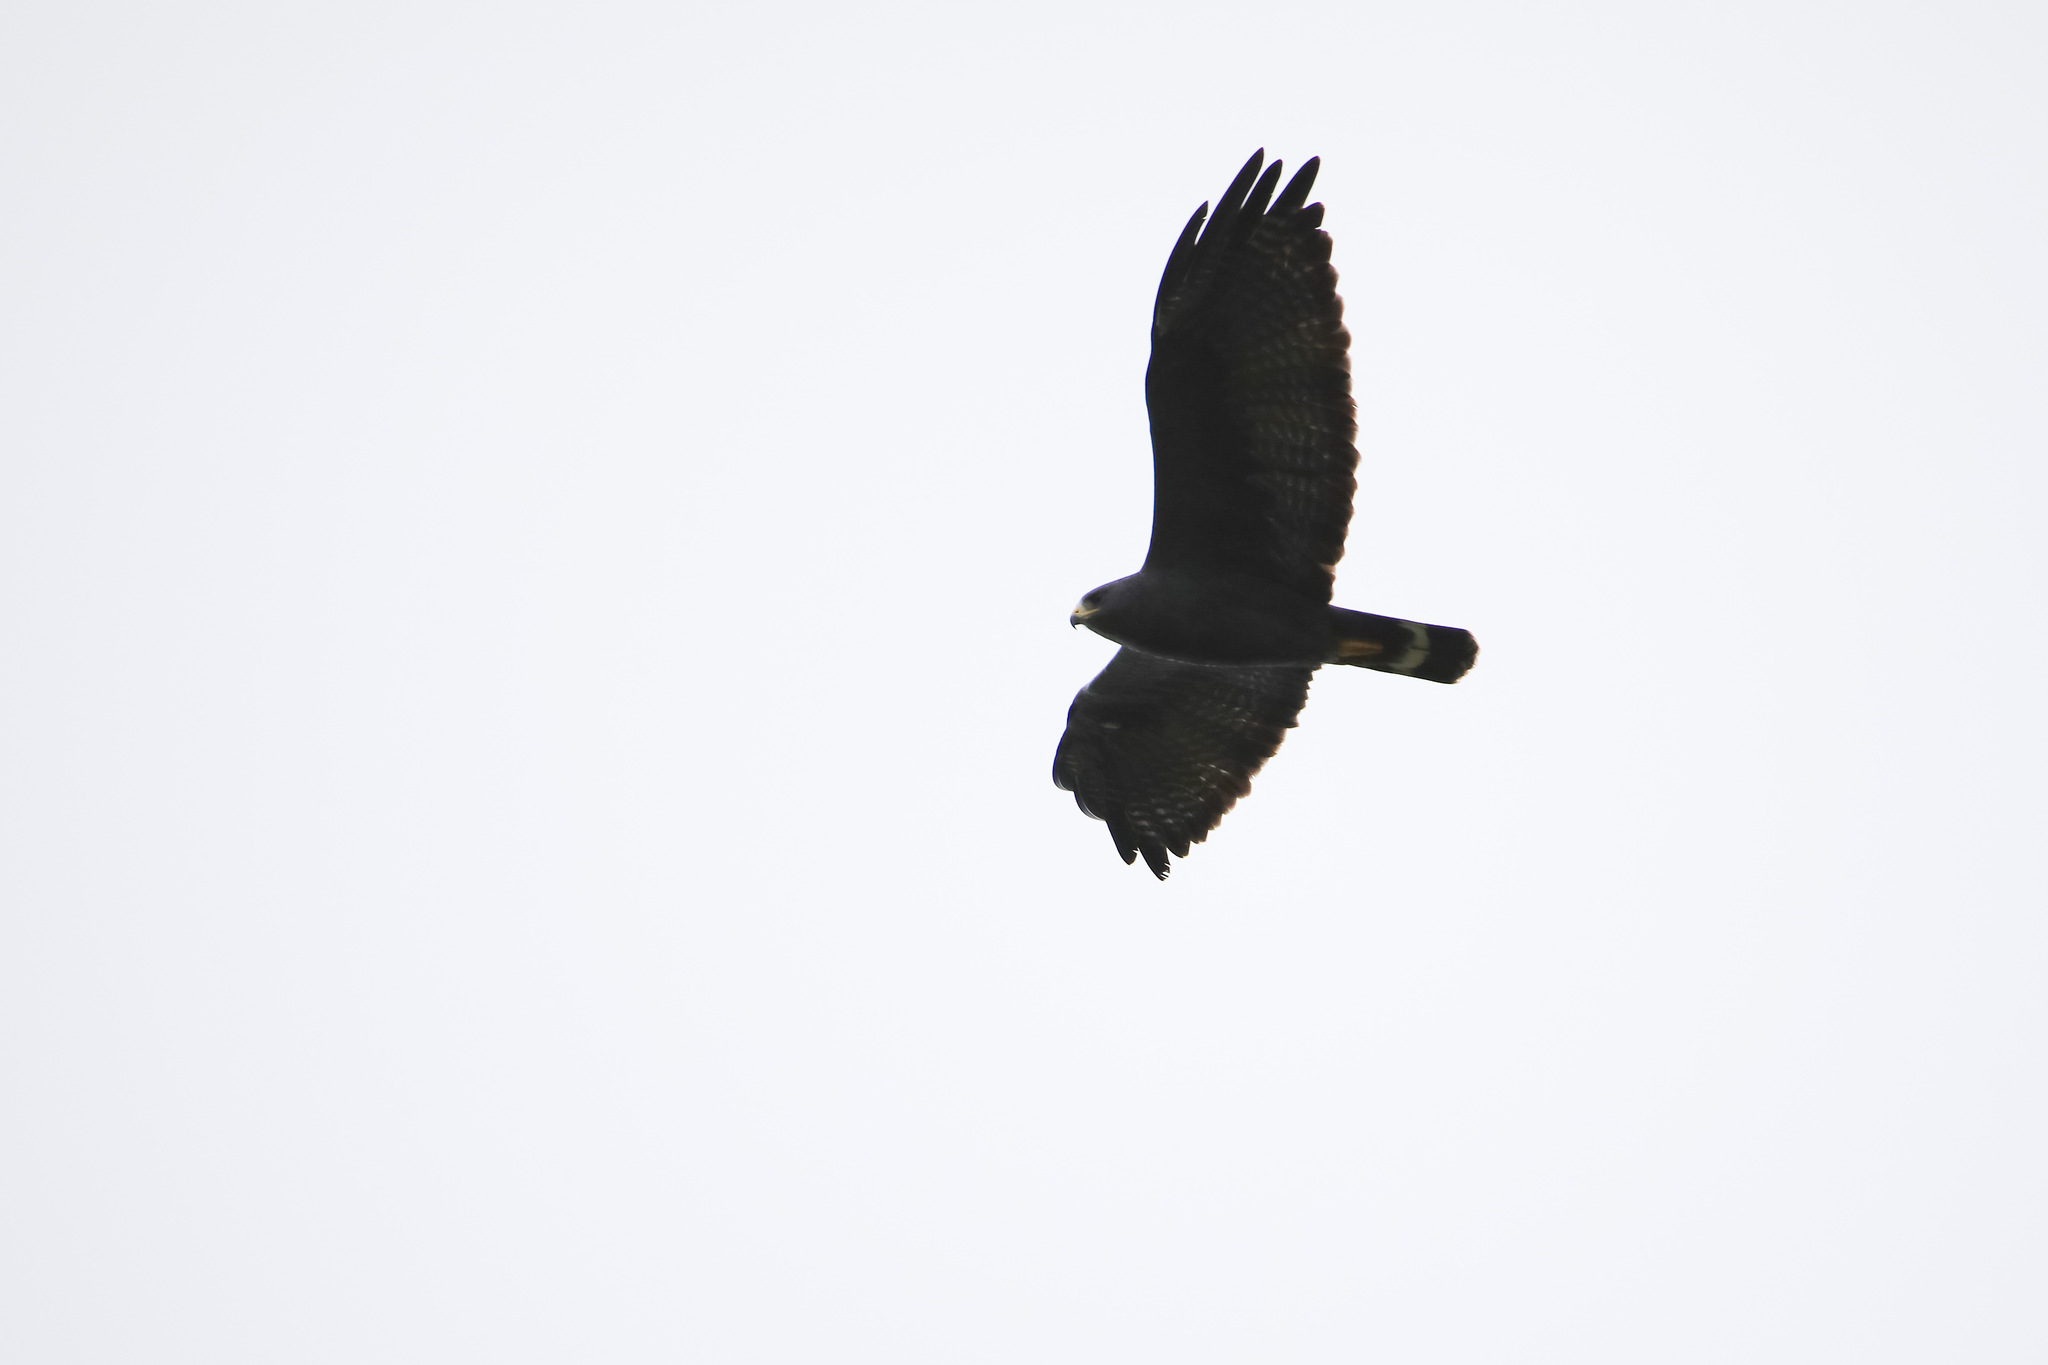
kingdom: Animalia
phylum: Chordata
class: Aves
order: Accipitriformes
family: Accipitridae
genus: Buteo
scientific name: Buteo albonotatus
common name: Zone-tailed hawk
